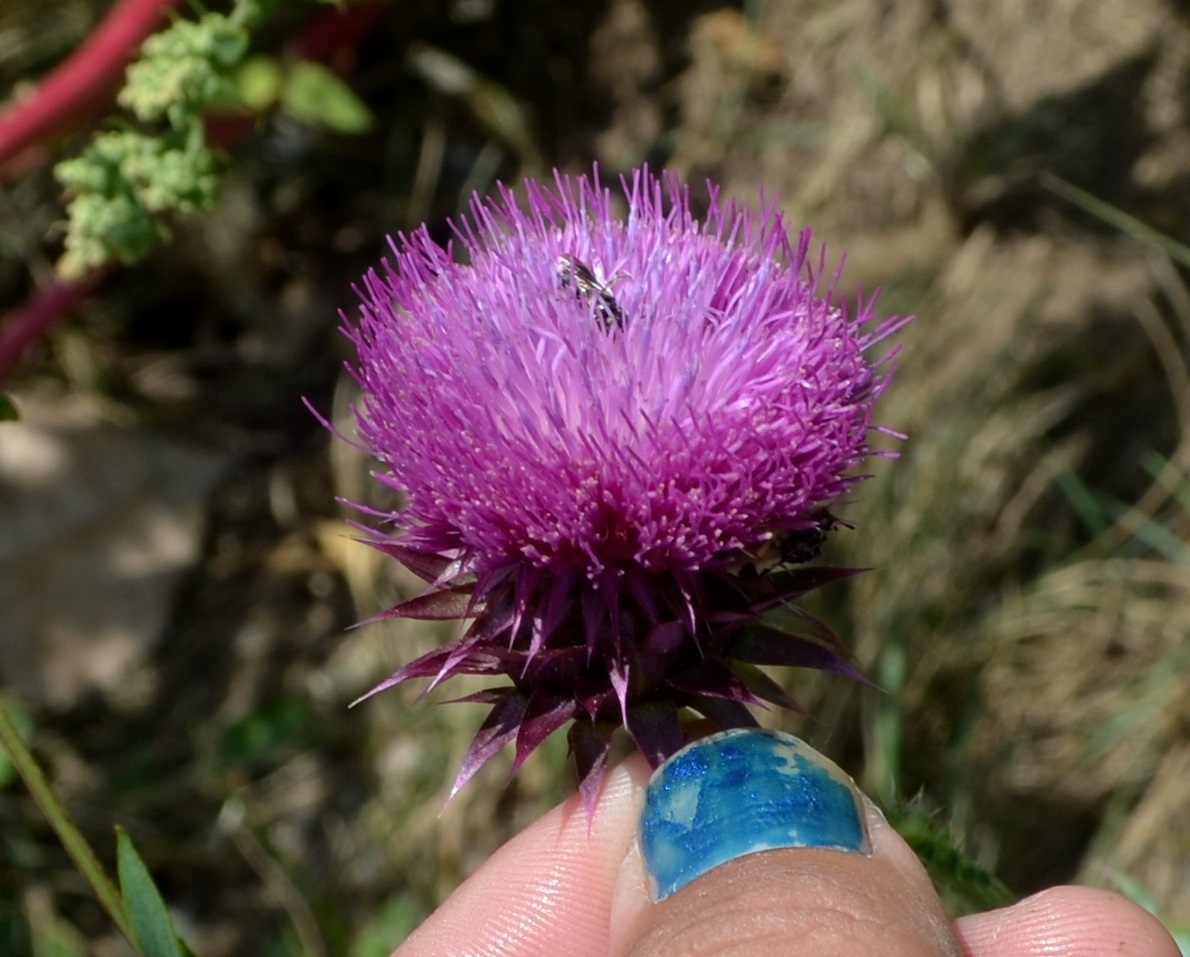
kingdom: Plantae
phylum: Tracheophyta
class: Magnoliopsida
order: Asterales
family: Asteraceae
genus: Carduus
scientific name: Carduus nutans
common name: Musk thistle
